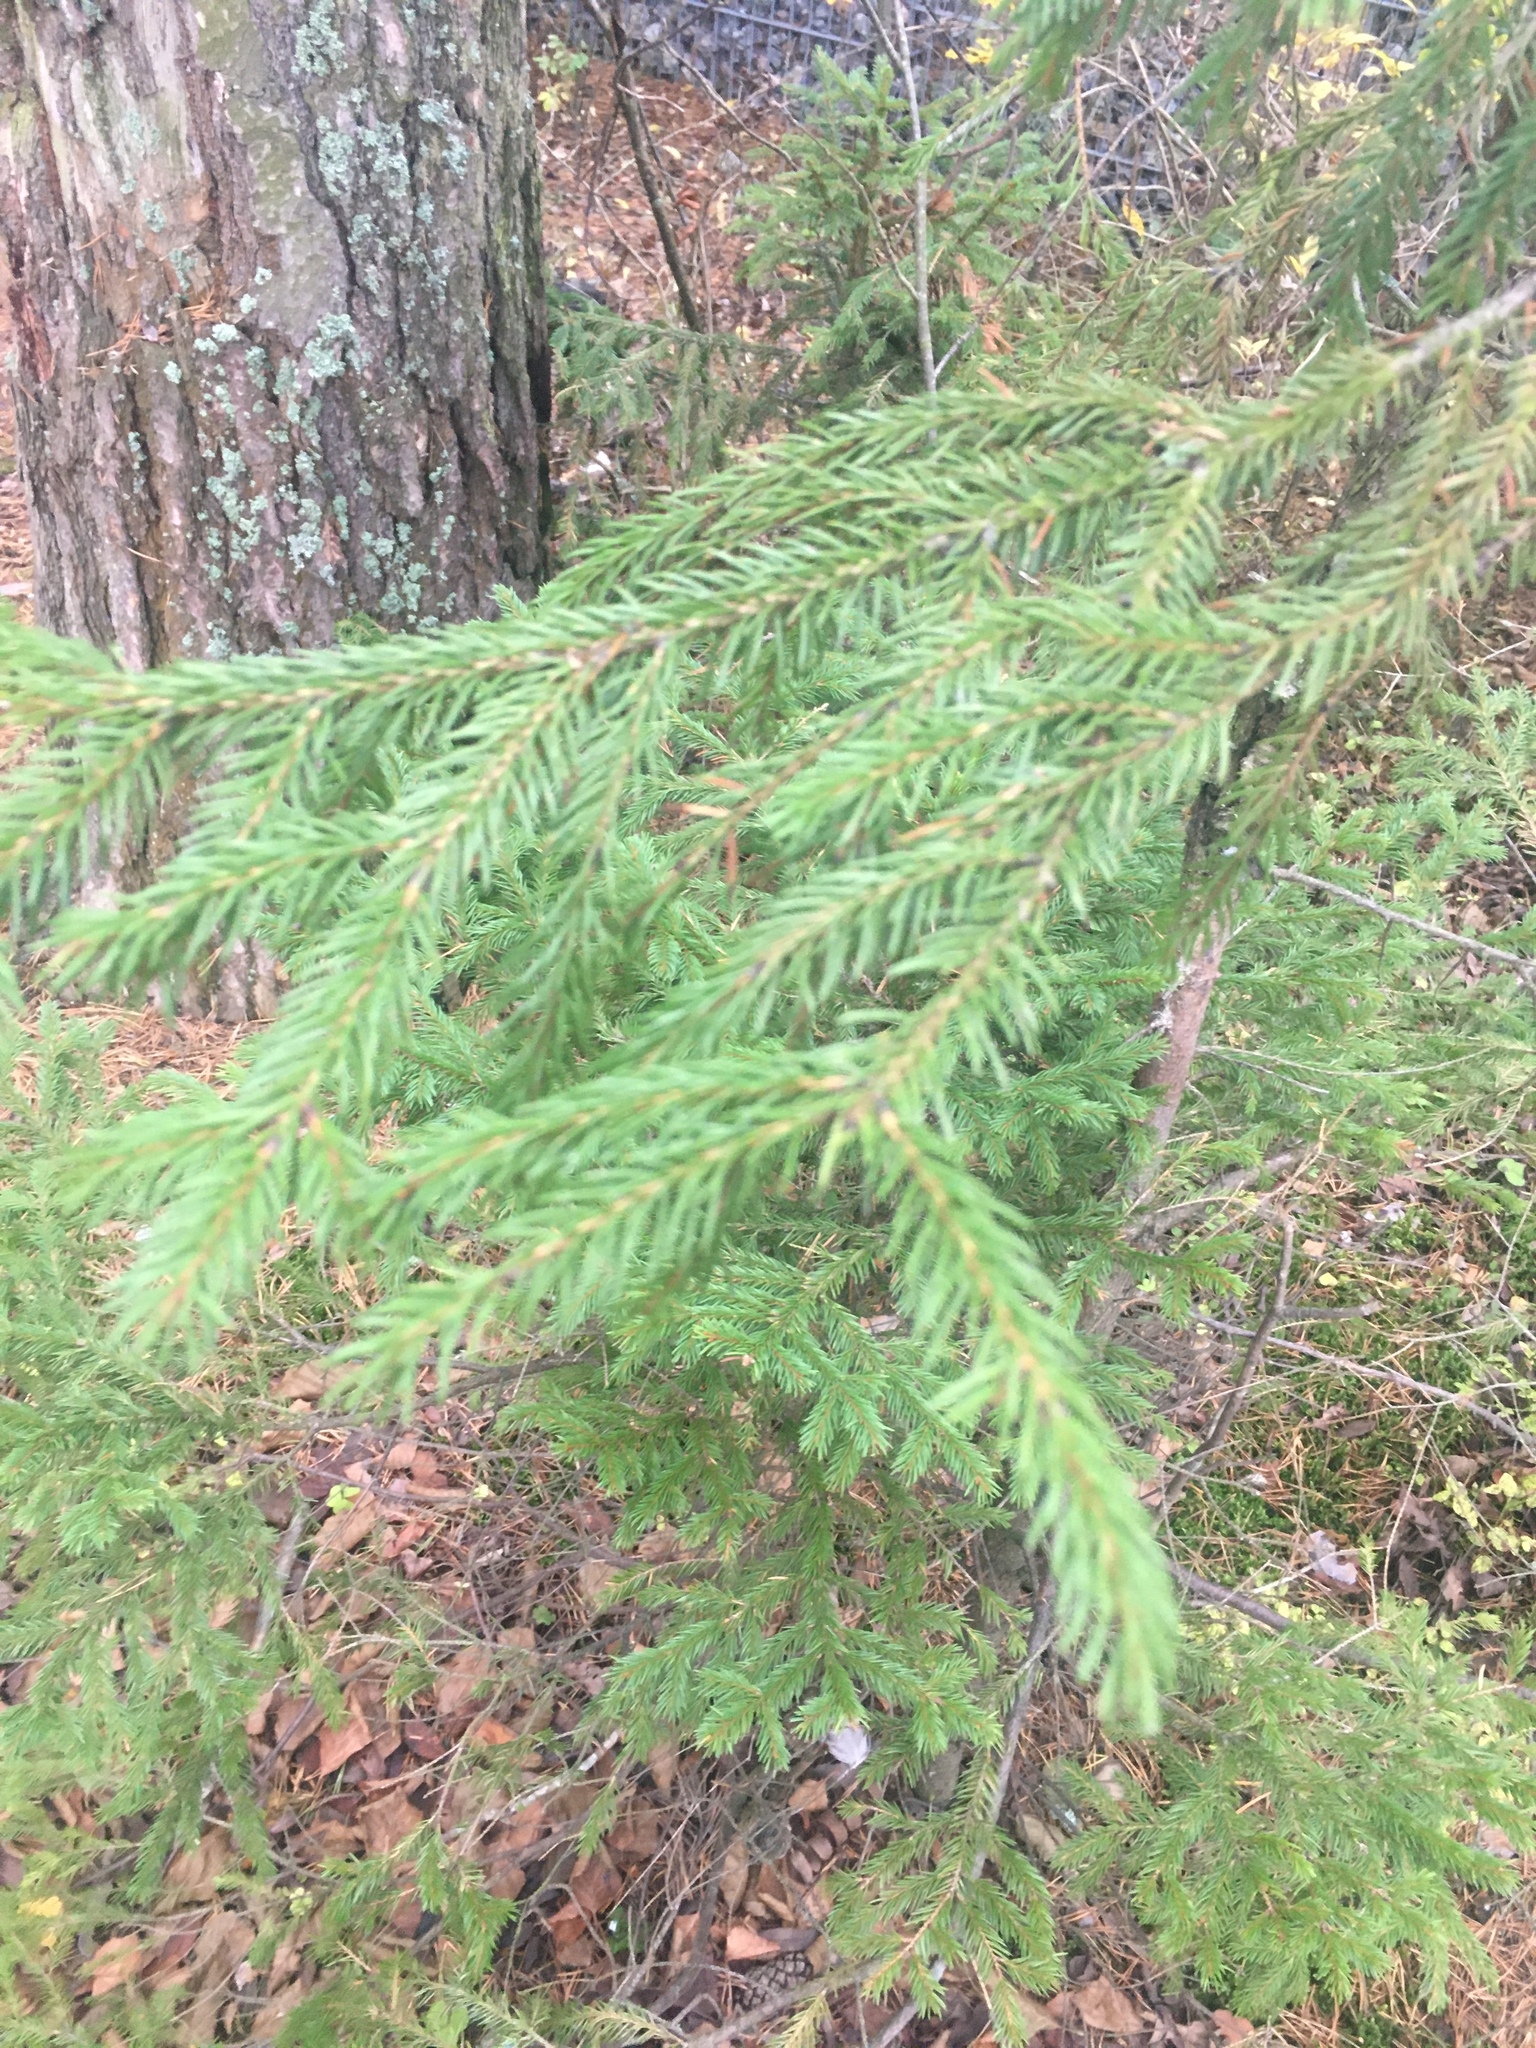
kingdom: Plantae
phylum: Tracheophyta
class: Pinopsida
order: Pinales
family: Pinaceae
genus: Picea
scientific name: Picea
